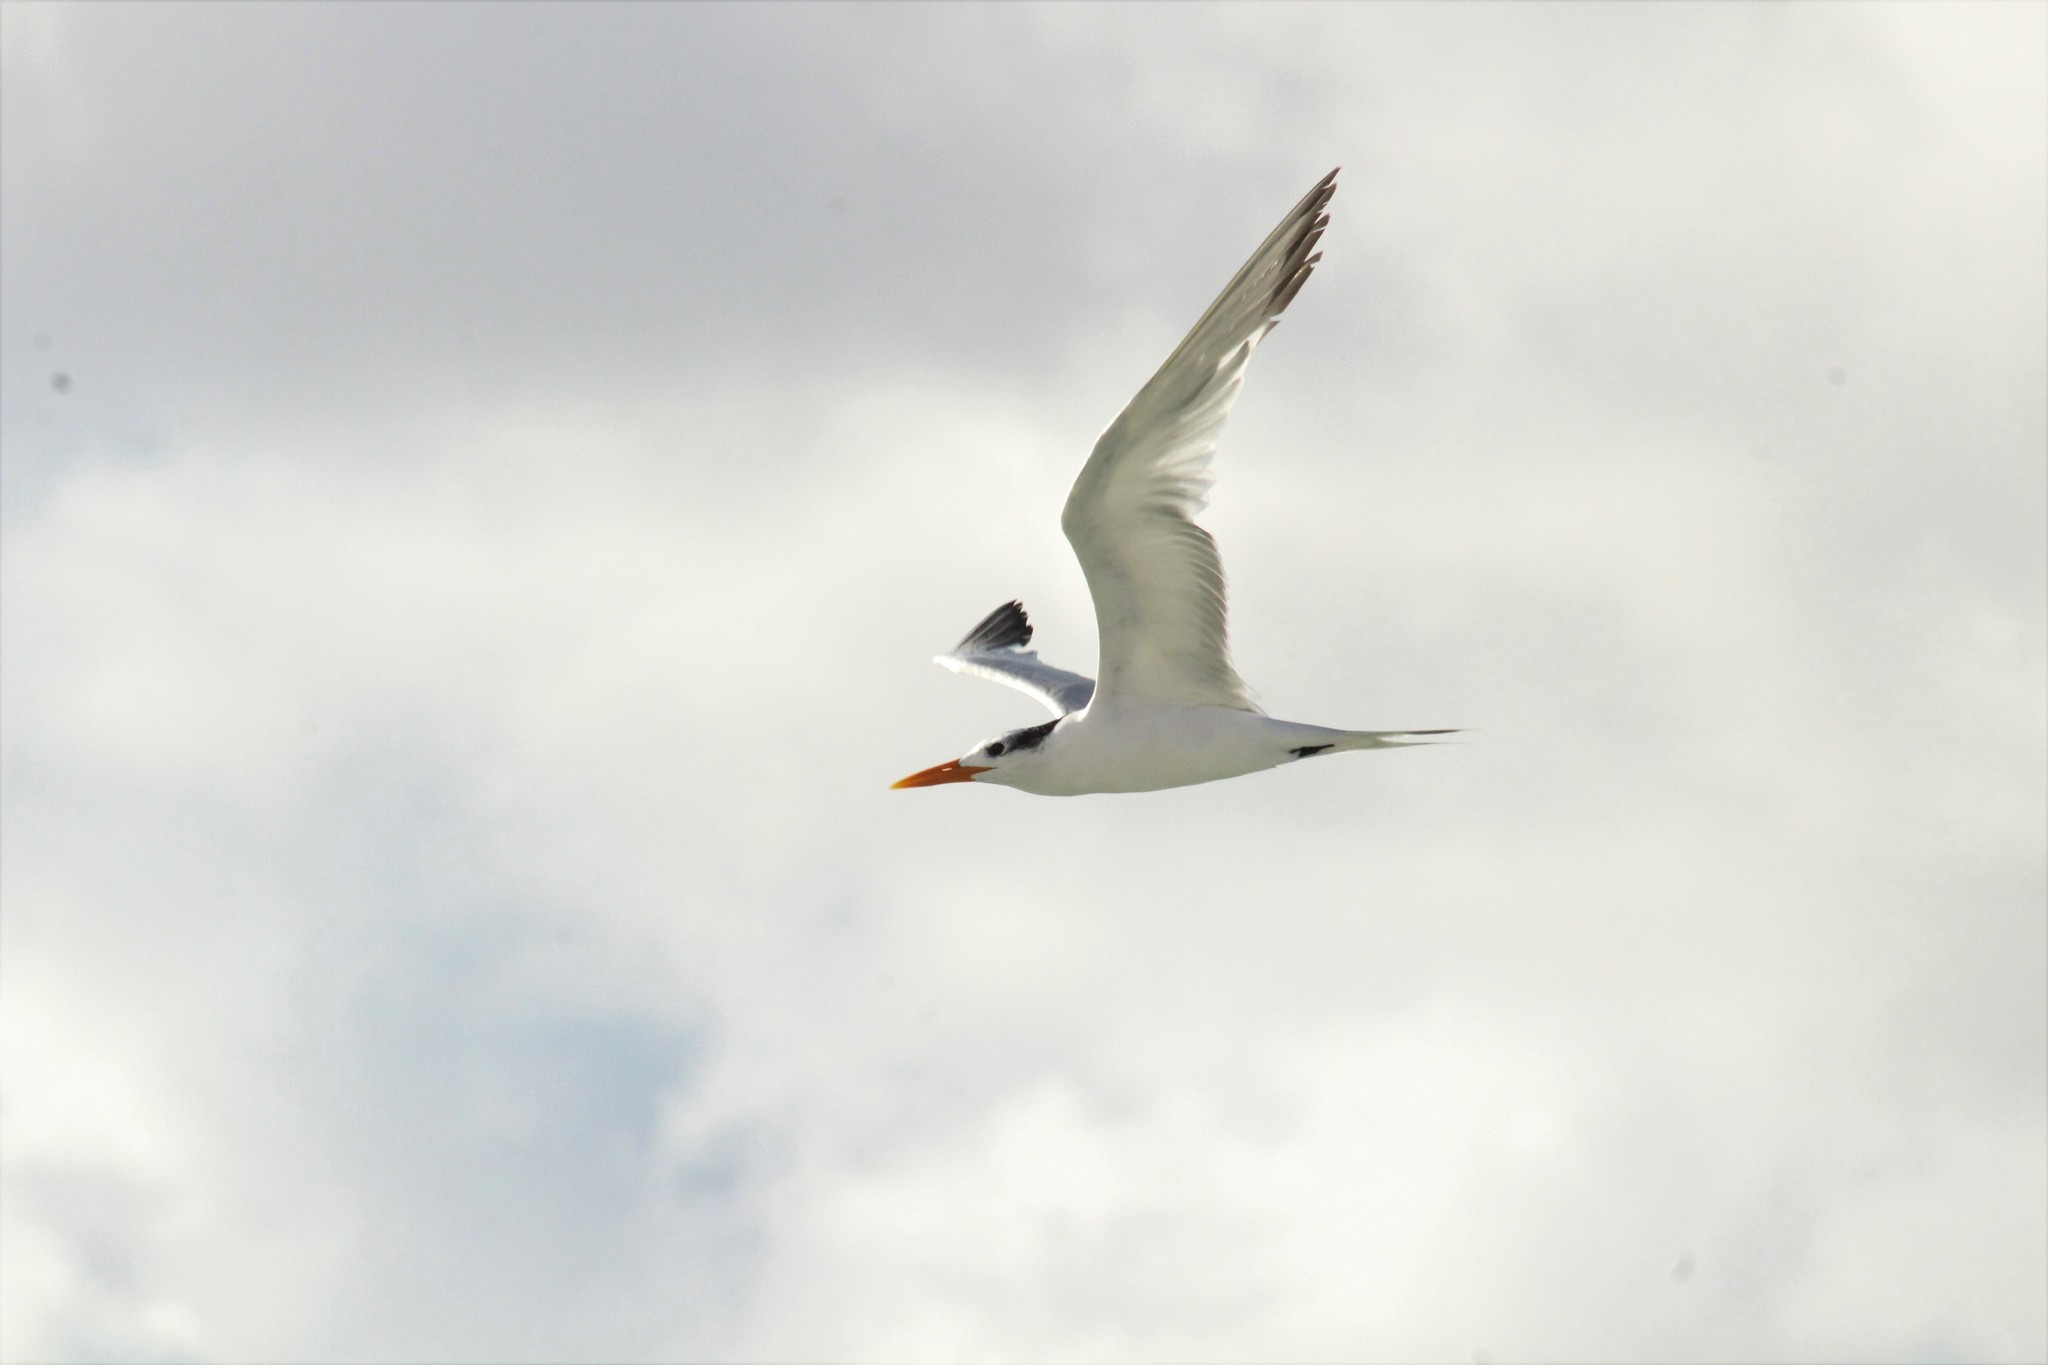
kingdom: Animalia
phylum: Chordata
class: Aves
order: Charadriiformes
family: Laridae
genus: Thalasseus
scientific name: Thalasseus maximus
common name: Royal tern
